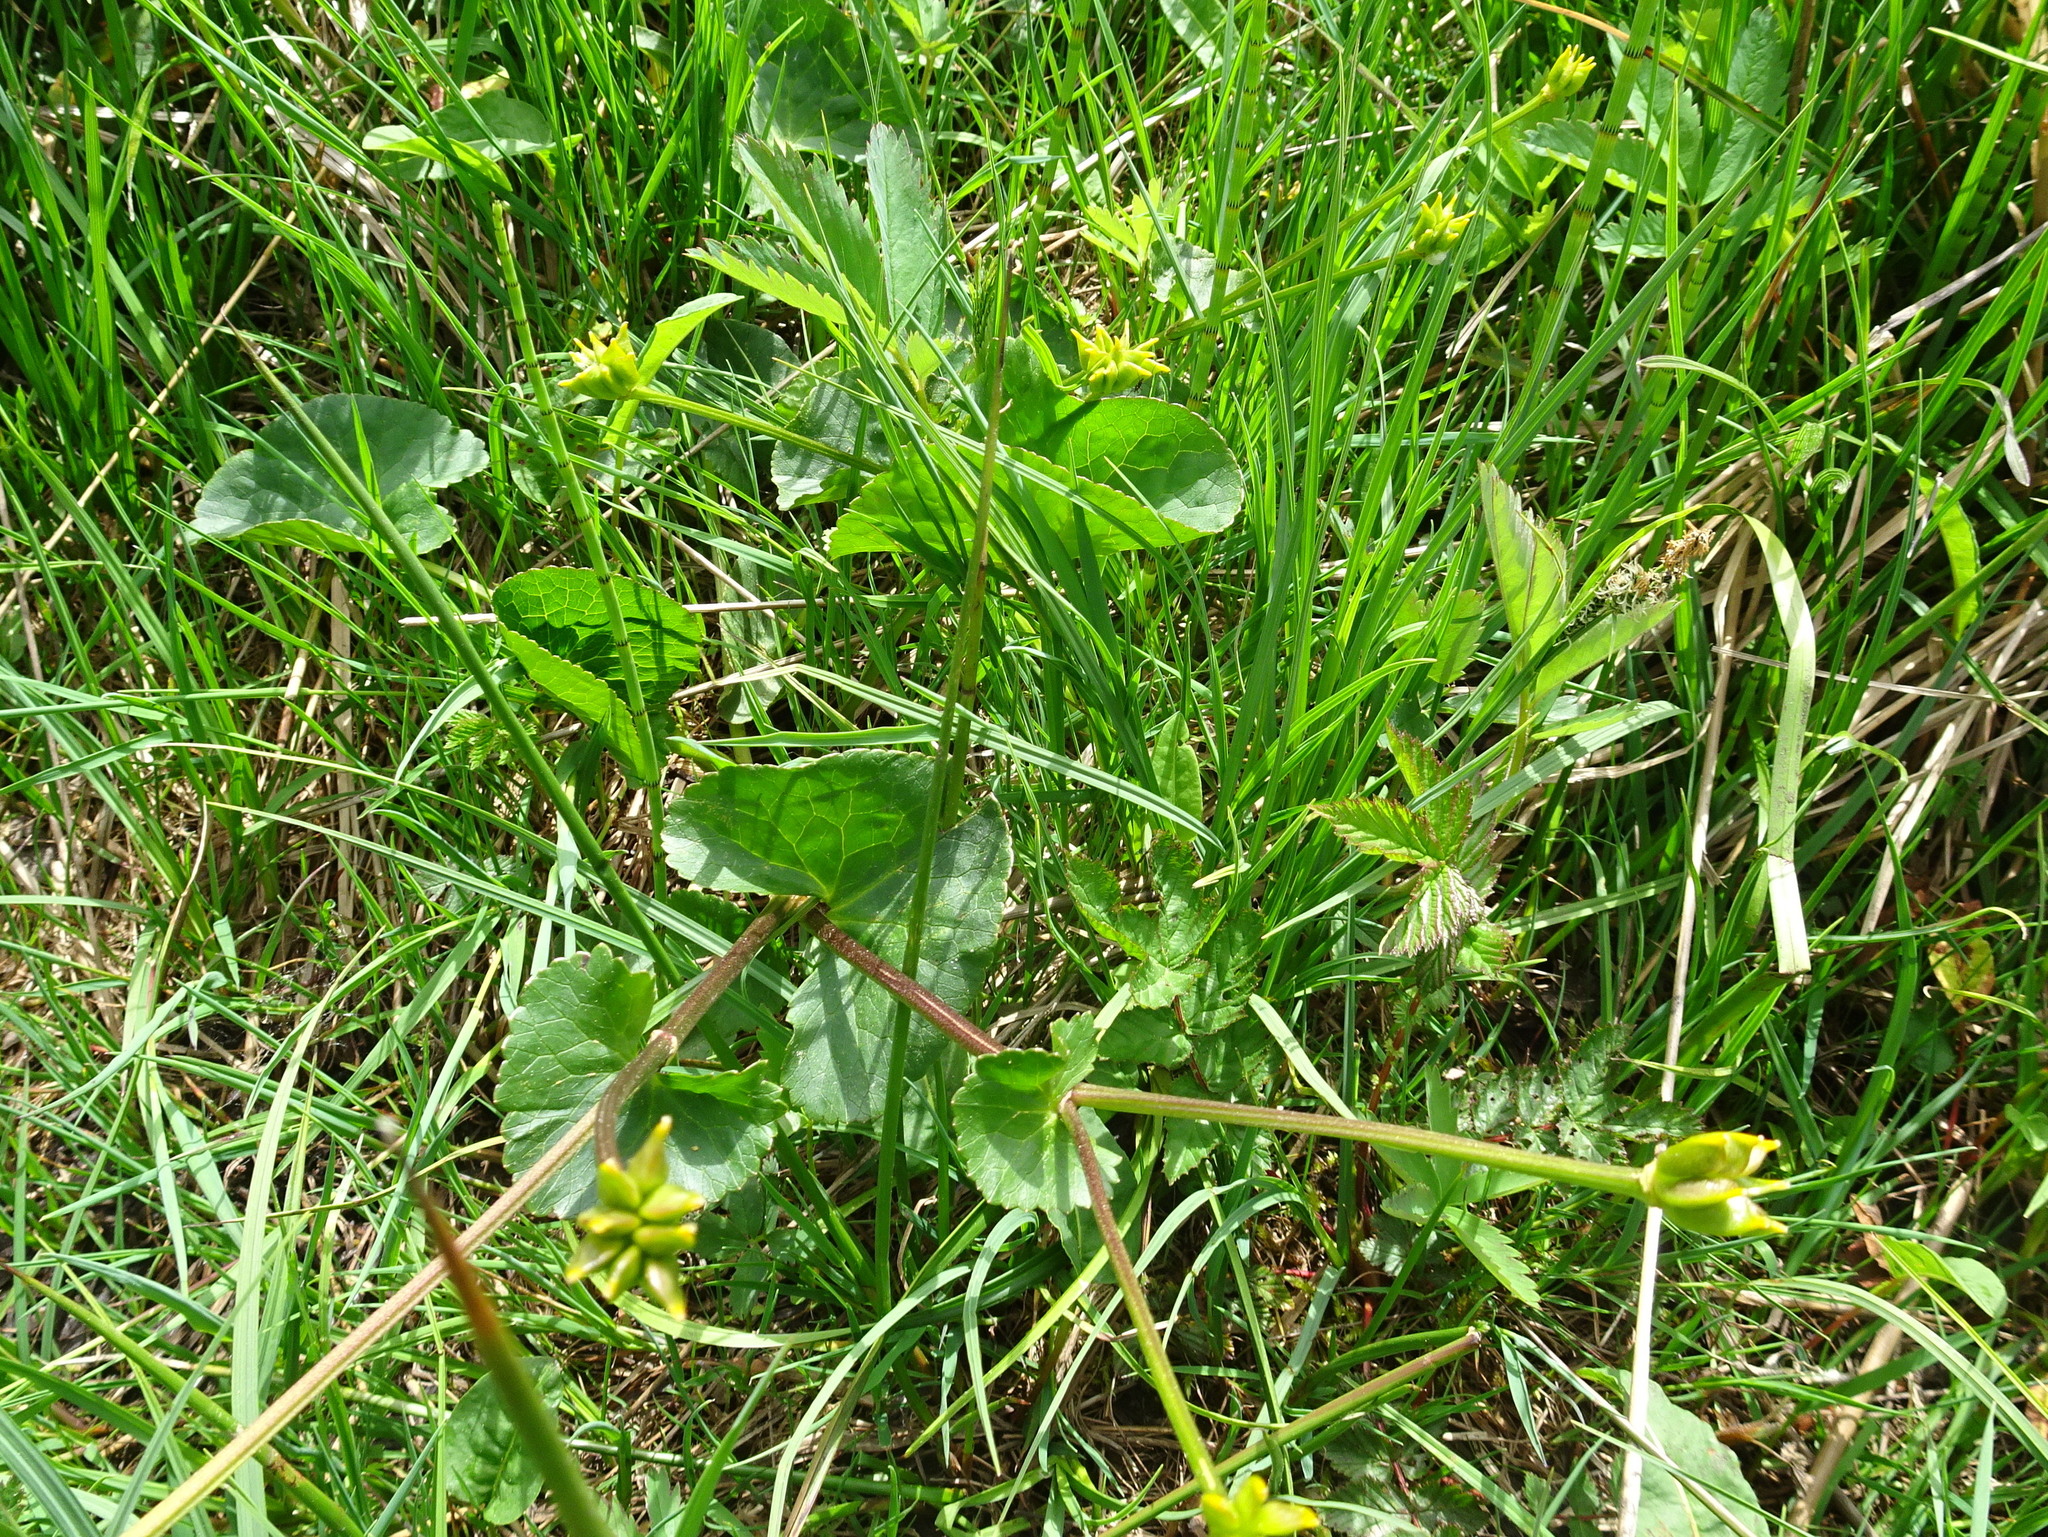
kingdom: Plantae
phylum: Tracheophyta
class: Magnoliopsida
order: Ranunculales
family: Ranunculaceae
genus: Caltha
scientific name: Caltha palustris
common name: Marsh marigold
